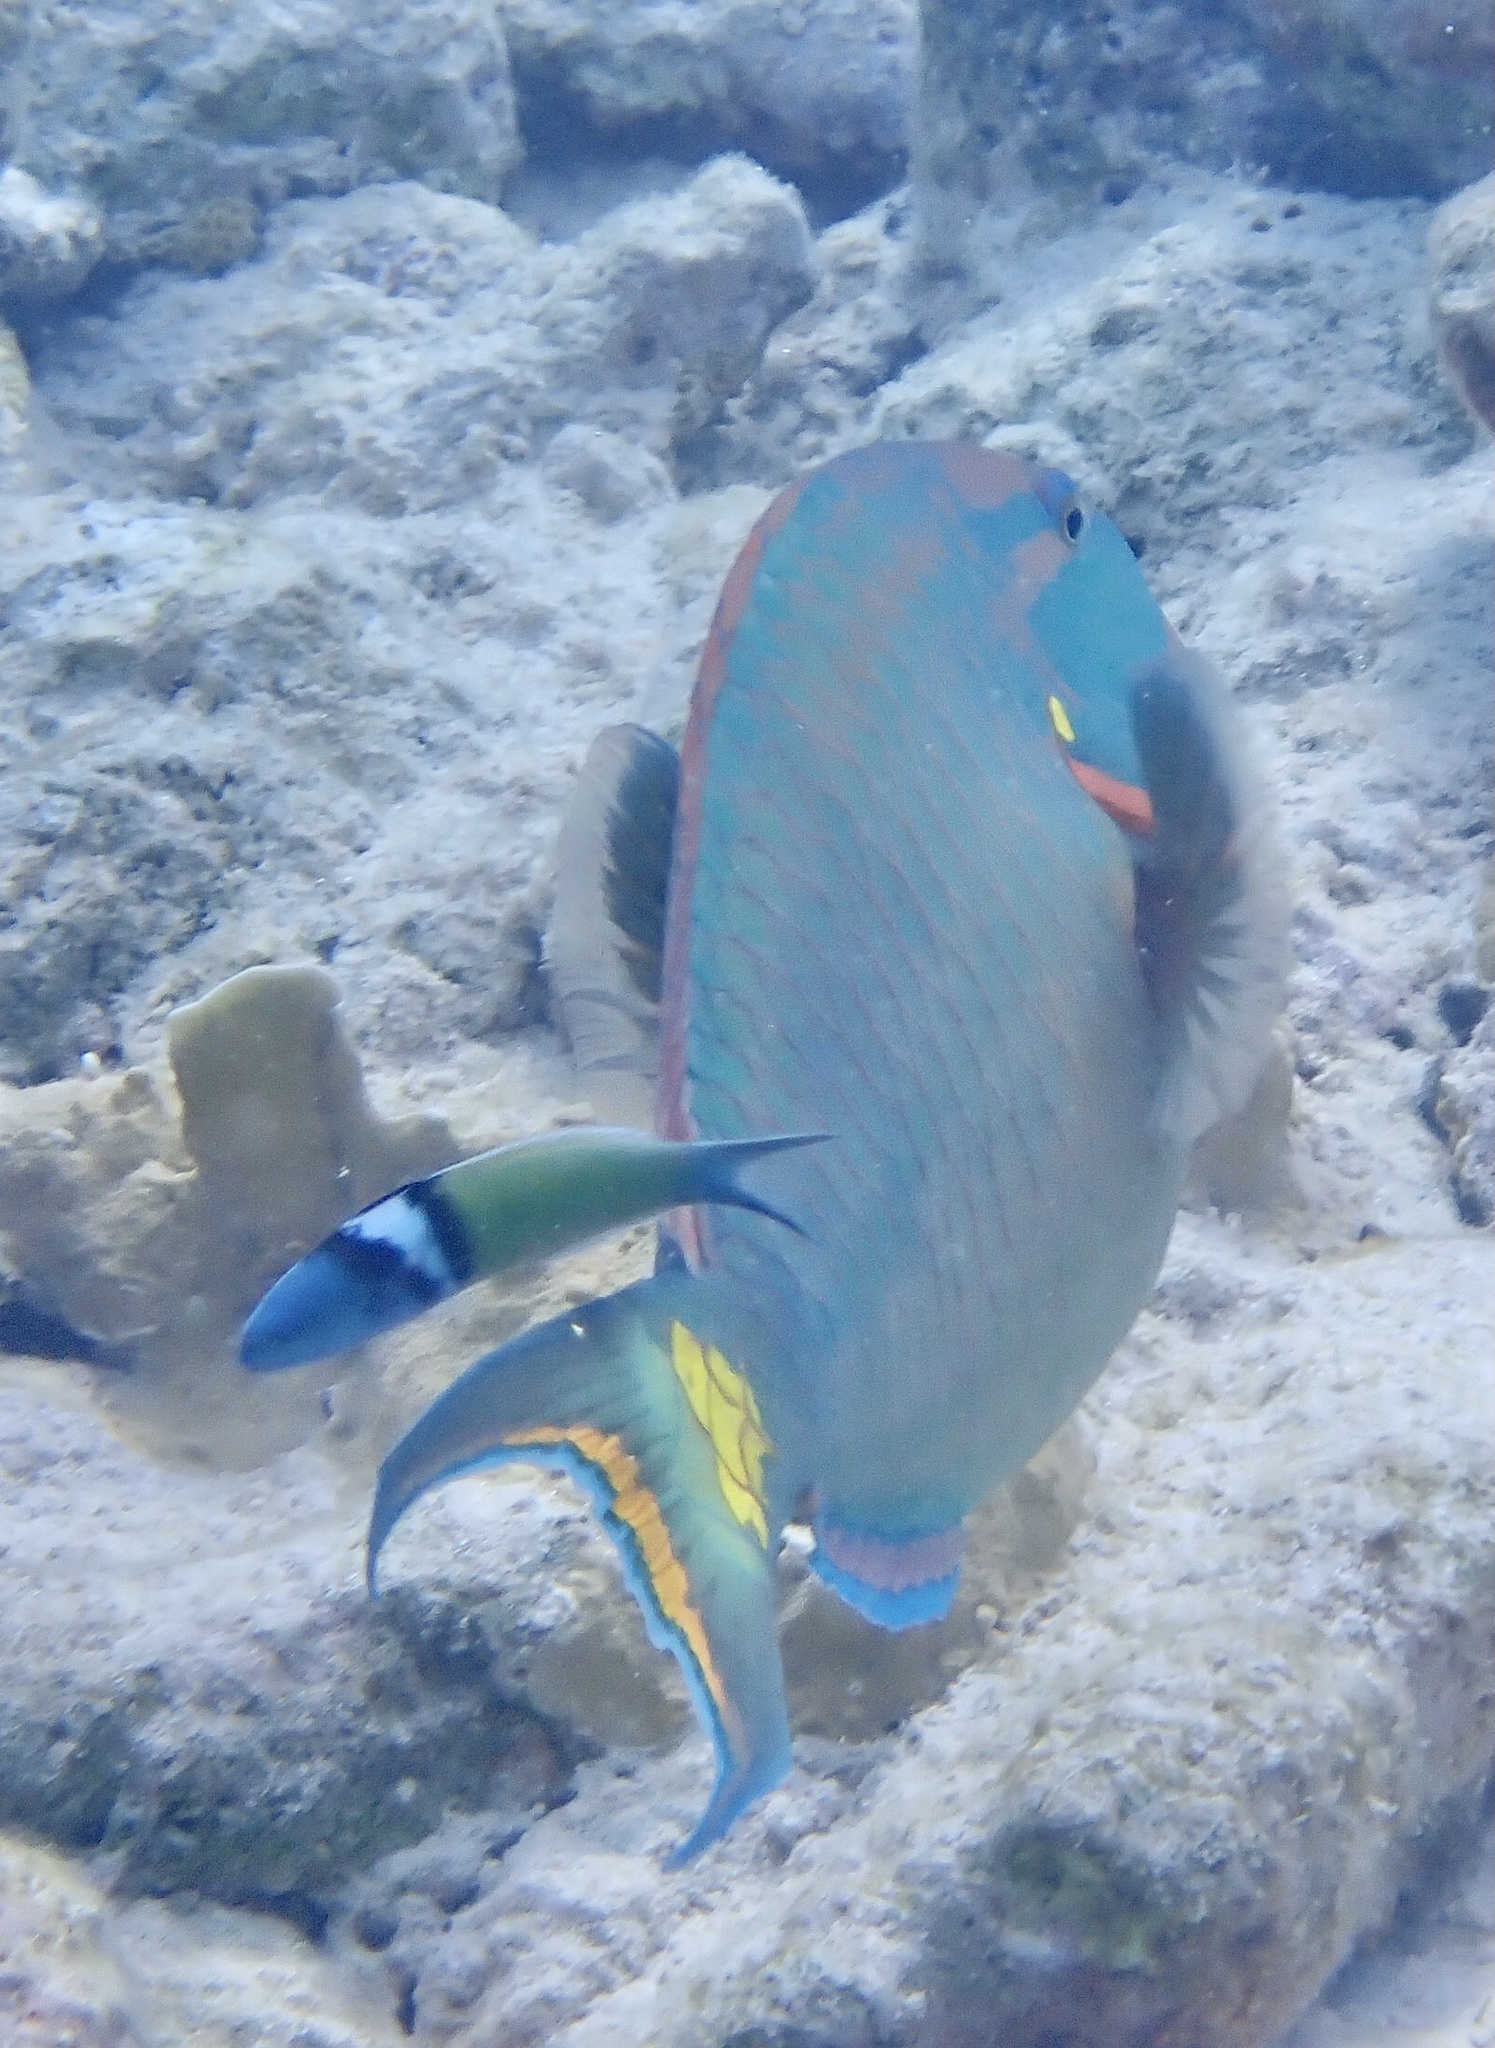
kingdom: Animalia
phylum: Chordata
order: Perciformes
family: Scaridae
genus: Sparisoma
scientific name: Sparisoma viride
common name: Stoplight parrotfish
